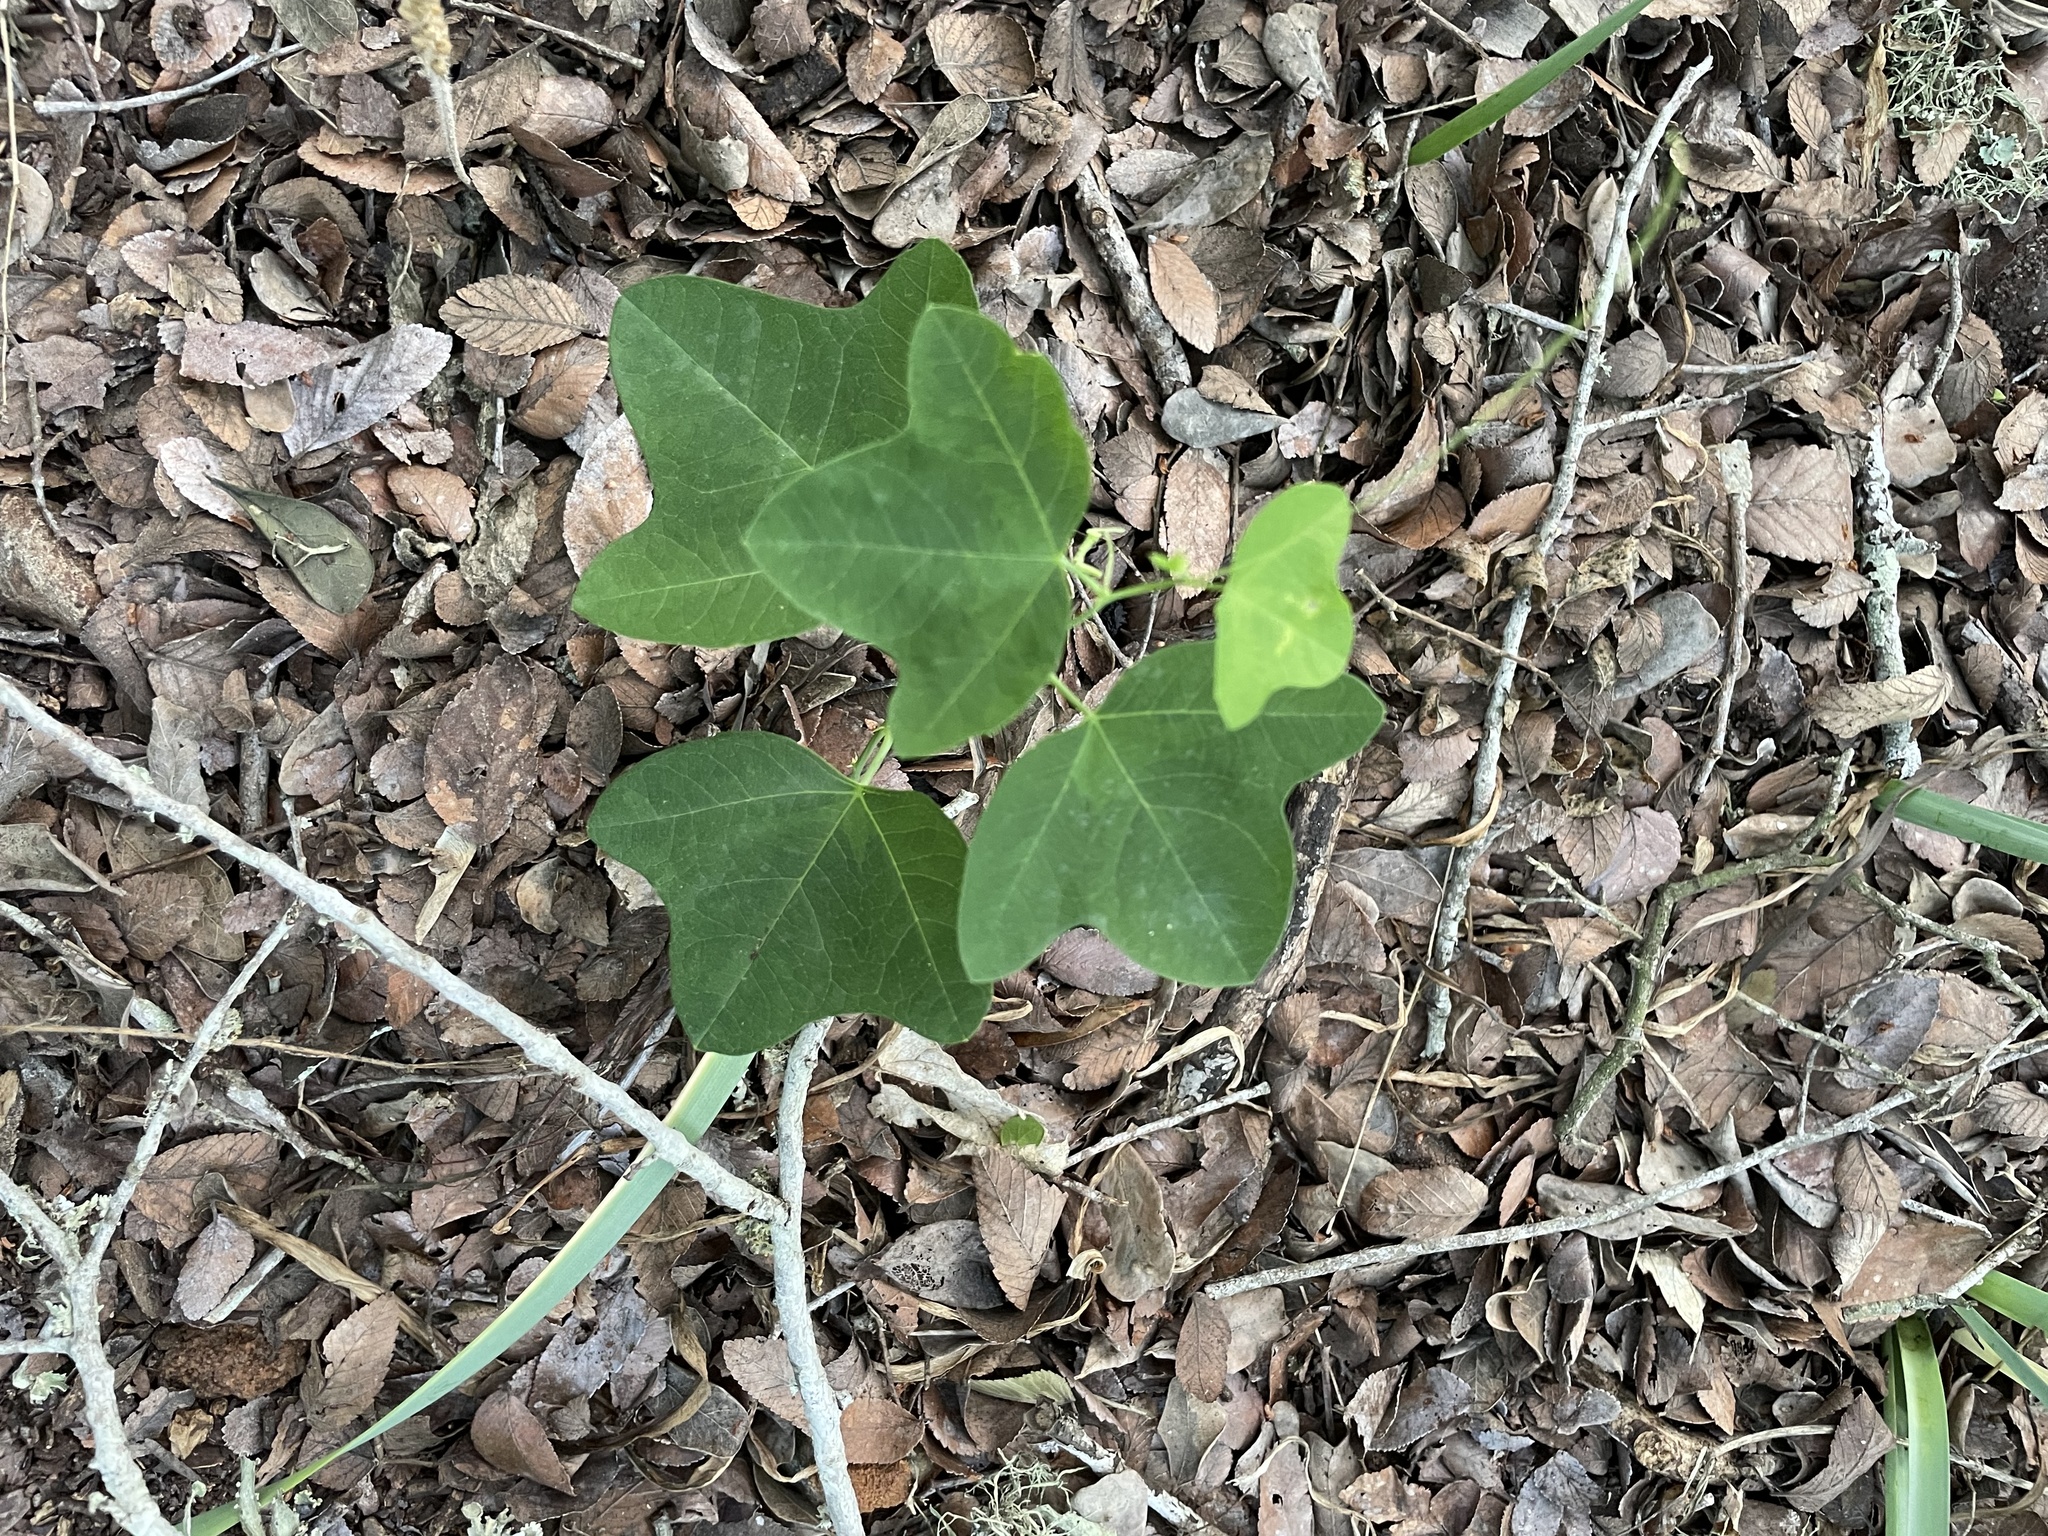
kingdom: Plantae
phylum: Tracheophyta
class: Magnoliopsida
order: Malpighiales
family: Passifloraceae
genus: Passiflora
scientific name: Passiflora lutea
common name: Yellow passionflower
